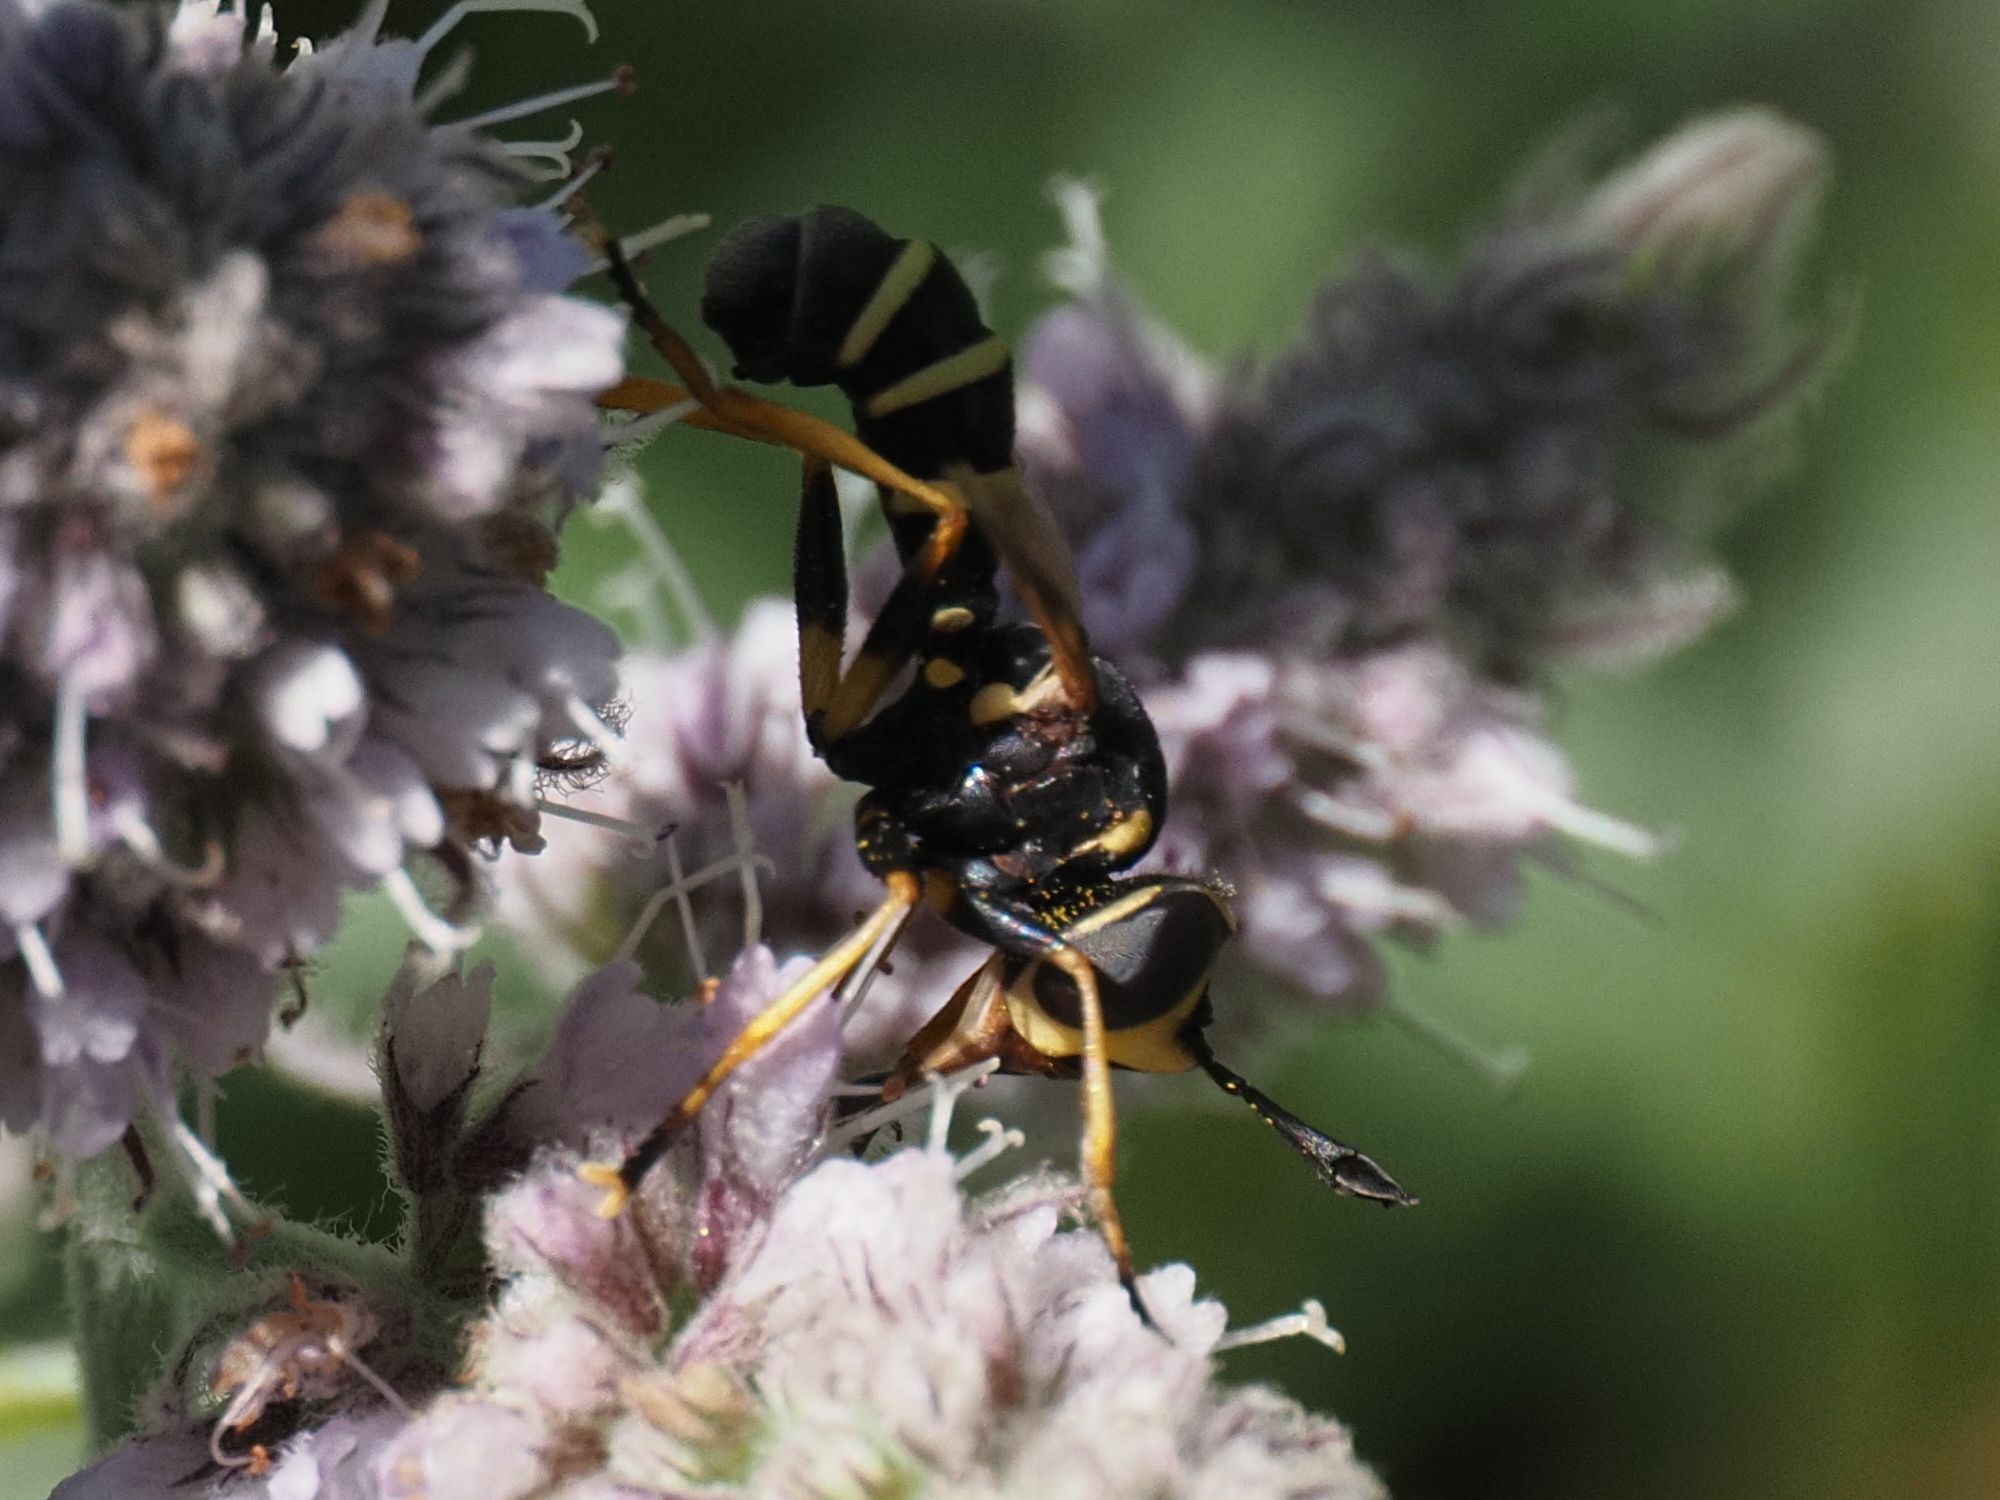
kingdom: Animalia
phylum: Arthropoda
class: Insecta
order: Diptera
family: Conopidae
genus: Conops
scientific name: Conops flavipes
